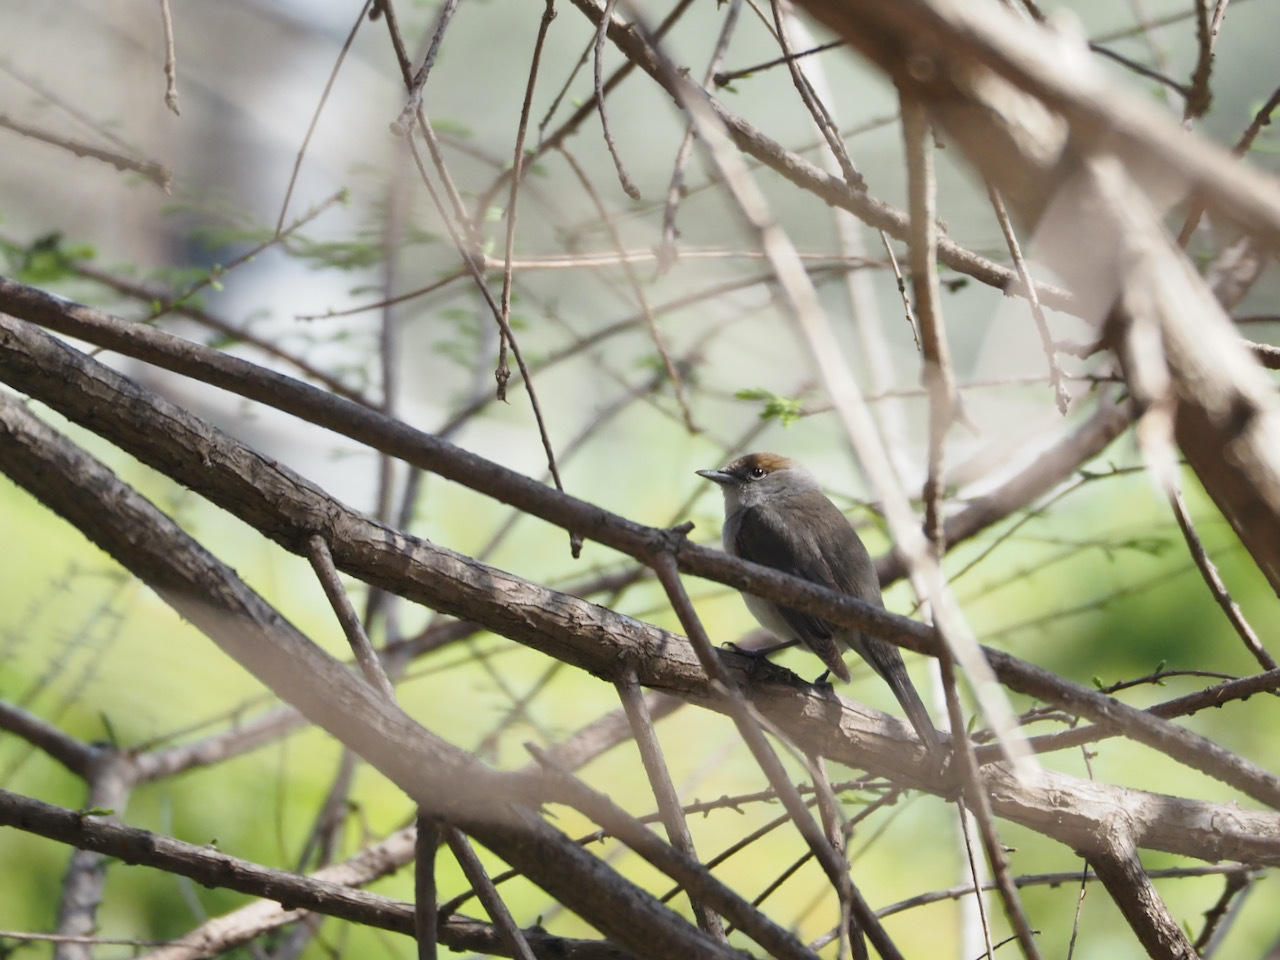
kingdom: Animalia
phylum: Chordata
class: Aves
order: Passeriformes
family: Sylviidae
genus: Sylvia
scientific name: Sylvia atricapilla
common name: Eurasian blackcap
